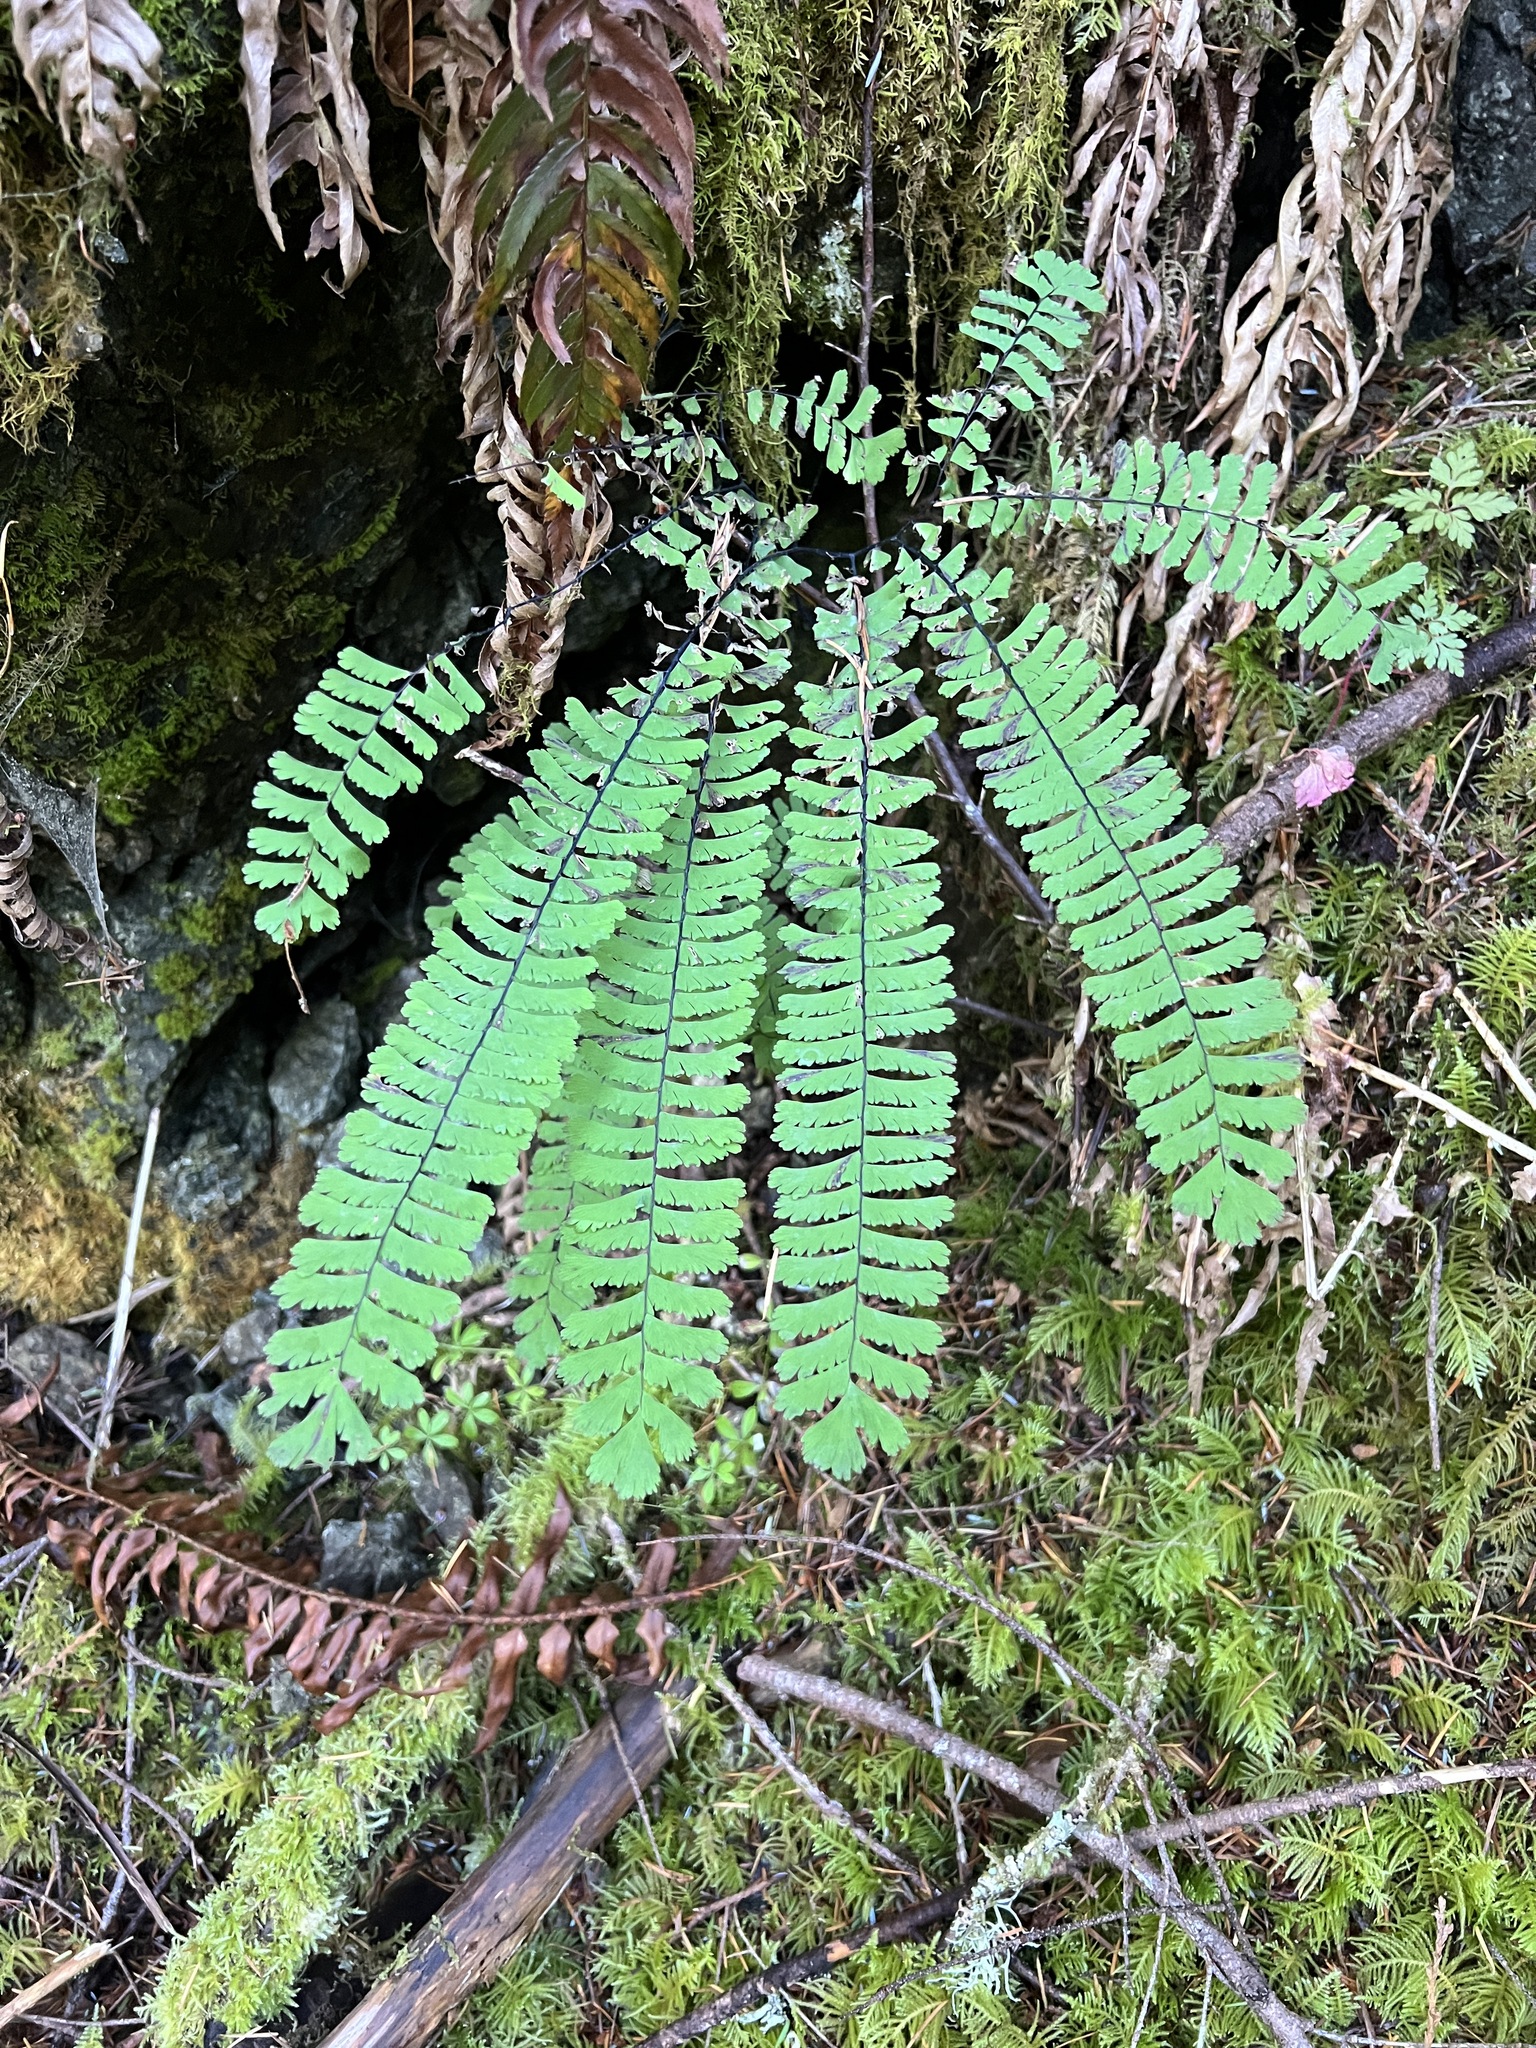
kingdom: Plantae
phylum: Tracheophyta
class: Polypodiopsida
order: Polypodiales
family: Pteridaceae
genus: Adiantum
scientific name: Adiantum aleuticum
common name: Aleutian maidenhair fern
